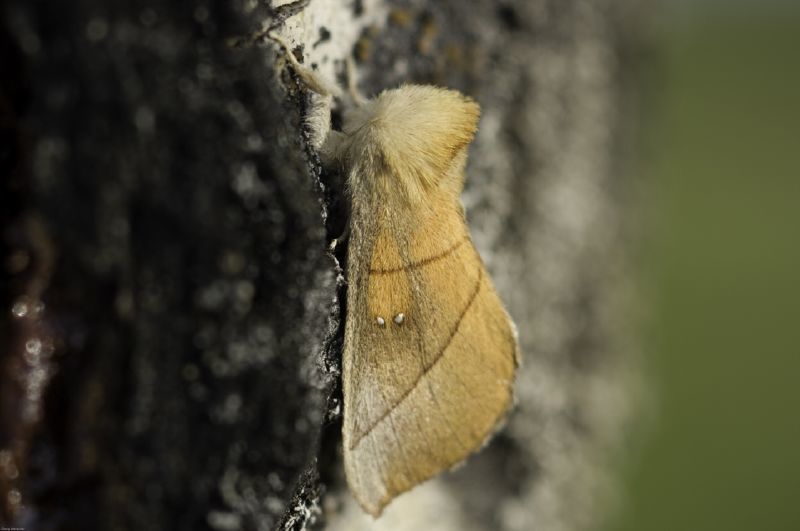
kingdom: Animalia
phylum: Arthropoda
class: Insecta
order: Lepidoptera
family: Notodontidae
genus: Nadata
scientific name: Nadata gibbosa
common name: White-dotted prominent
